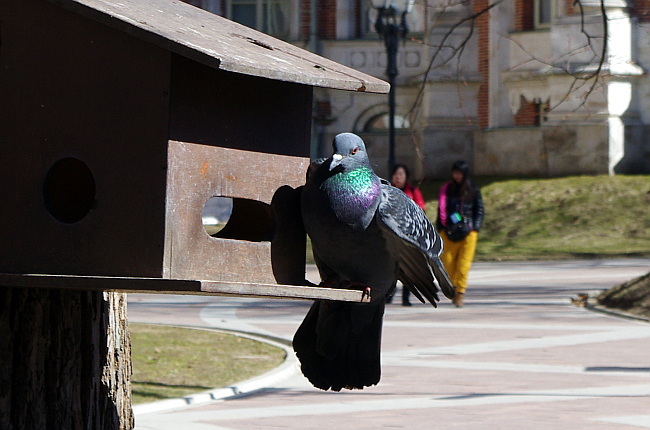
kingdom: Animalia
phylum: Chordata
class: Aves
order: Columbiformes
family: Columbidae
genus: Columba
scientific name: Columba livia
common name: Rock pigeon
